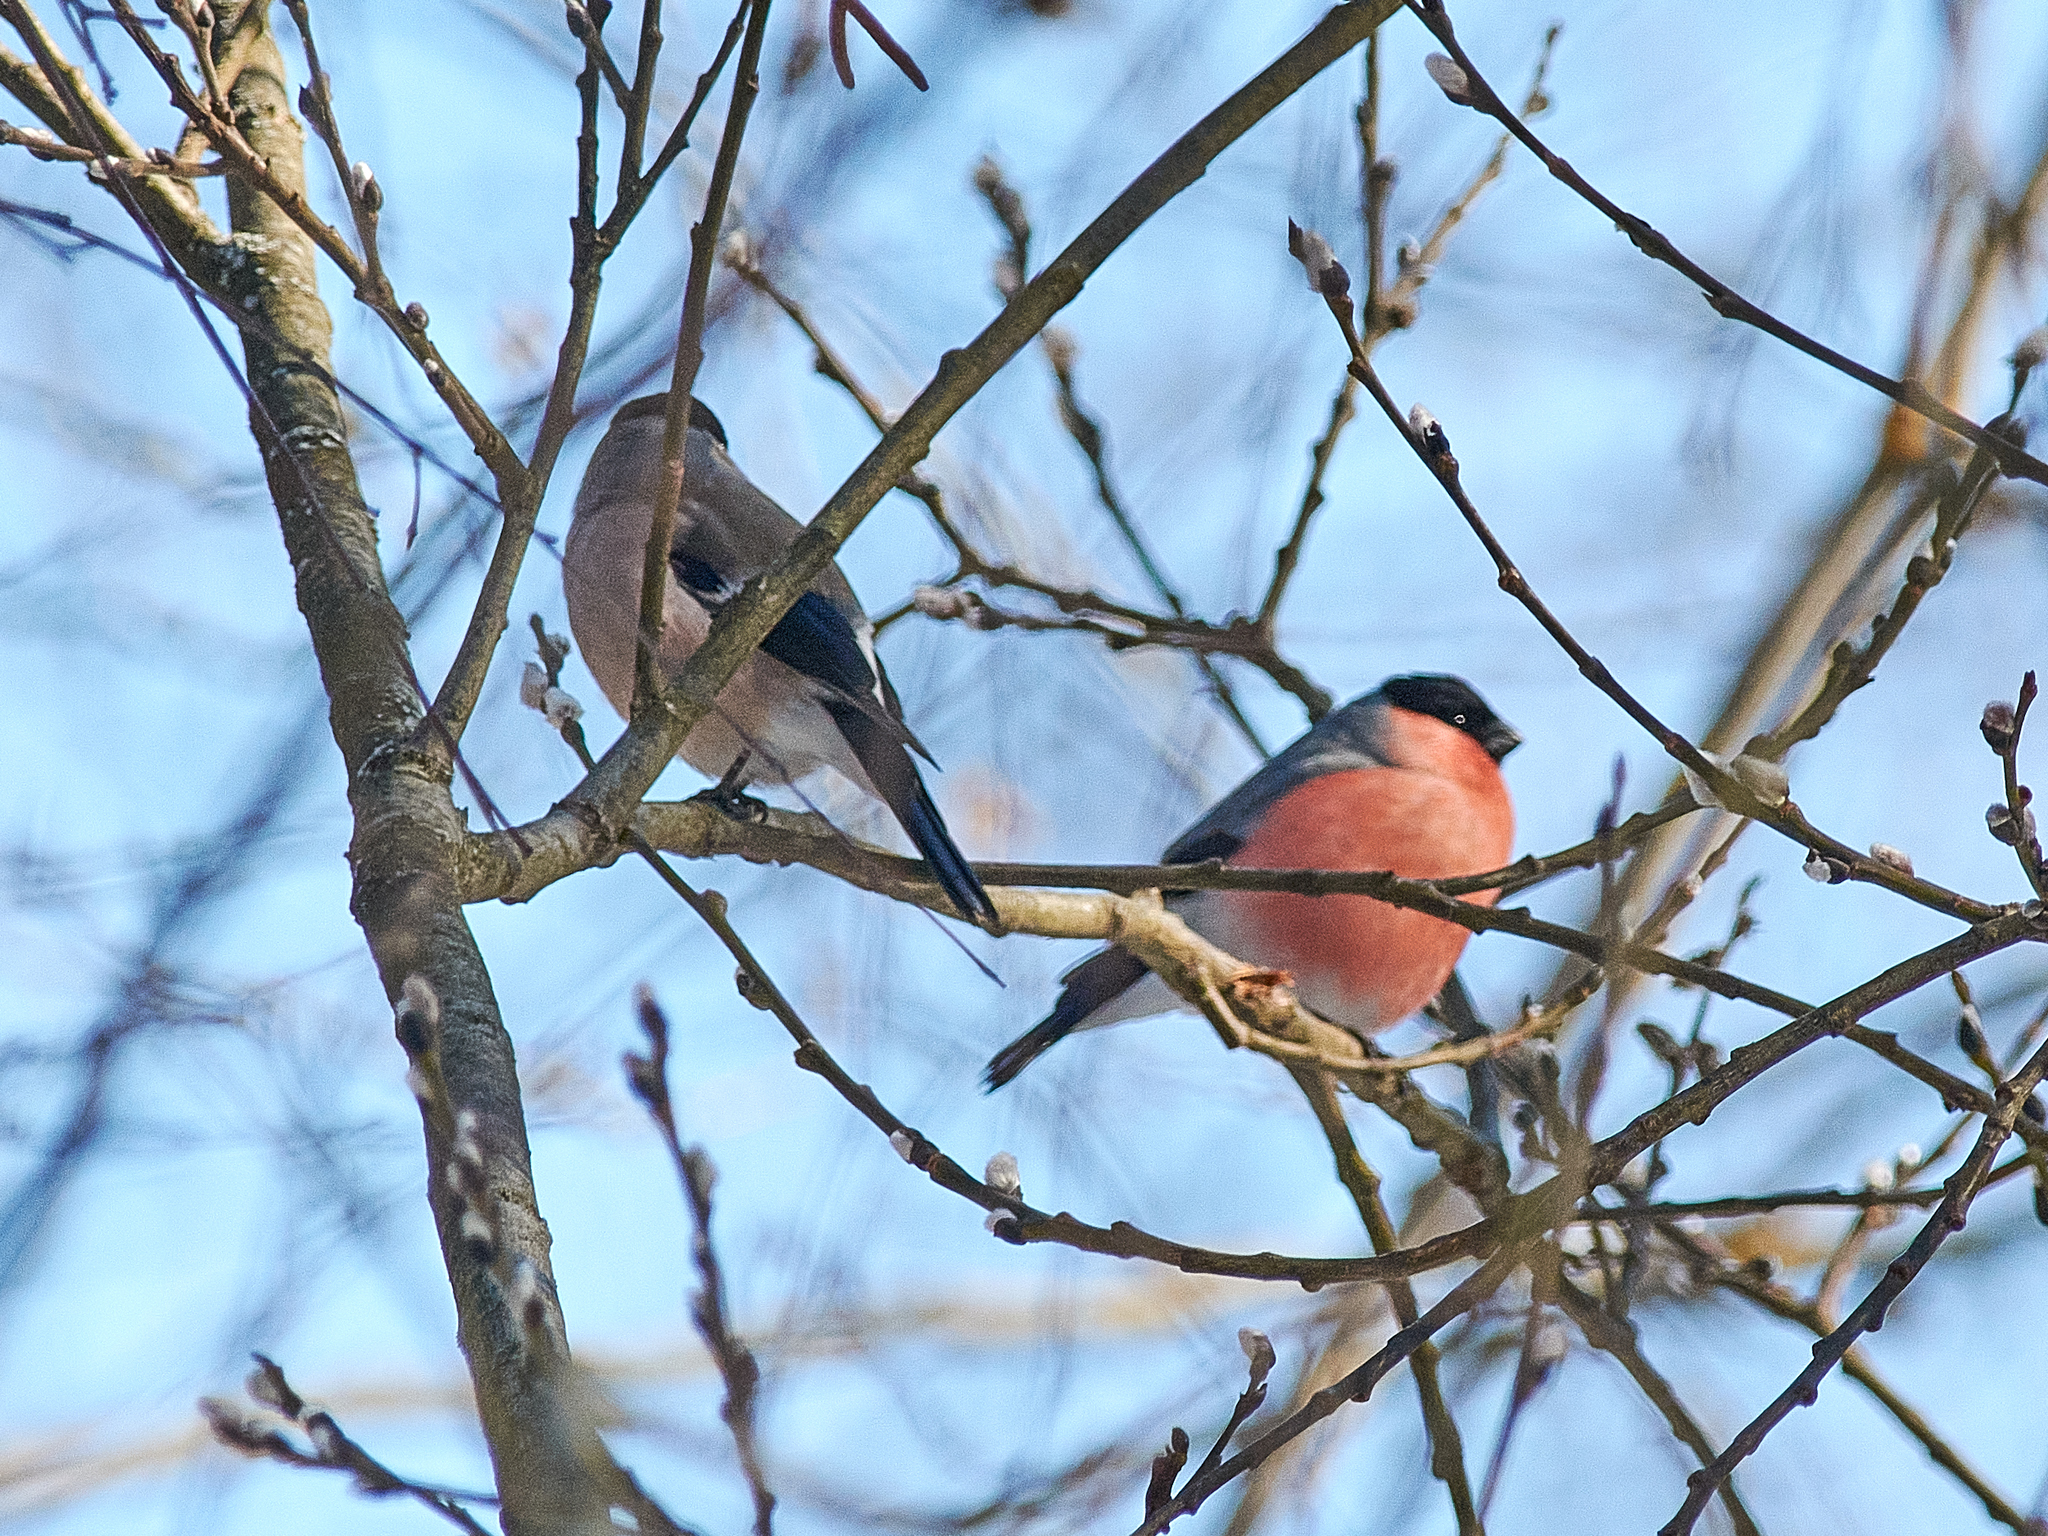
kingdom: Animalia
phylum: Chordata
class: Aves
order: Passeriformes
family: Fringillidae
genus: Pyrrhula
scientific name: Pyrrhula pyrrhula
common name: Eurasian bullfinch
